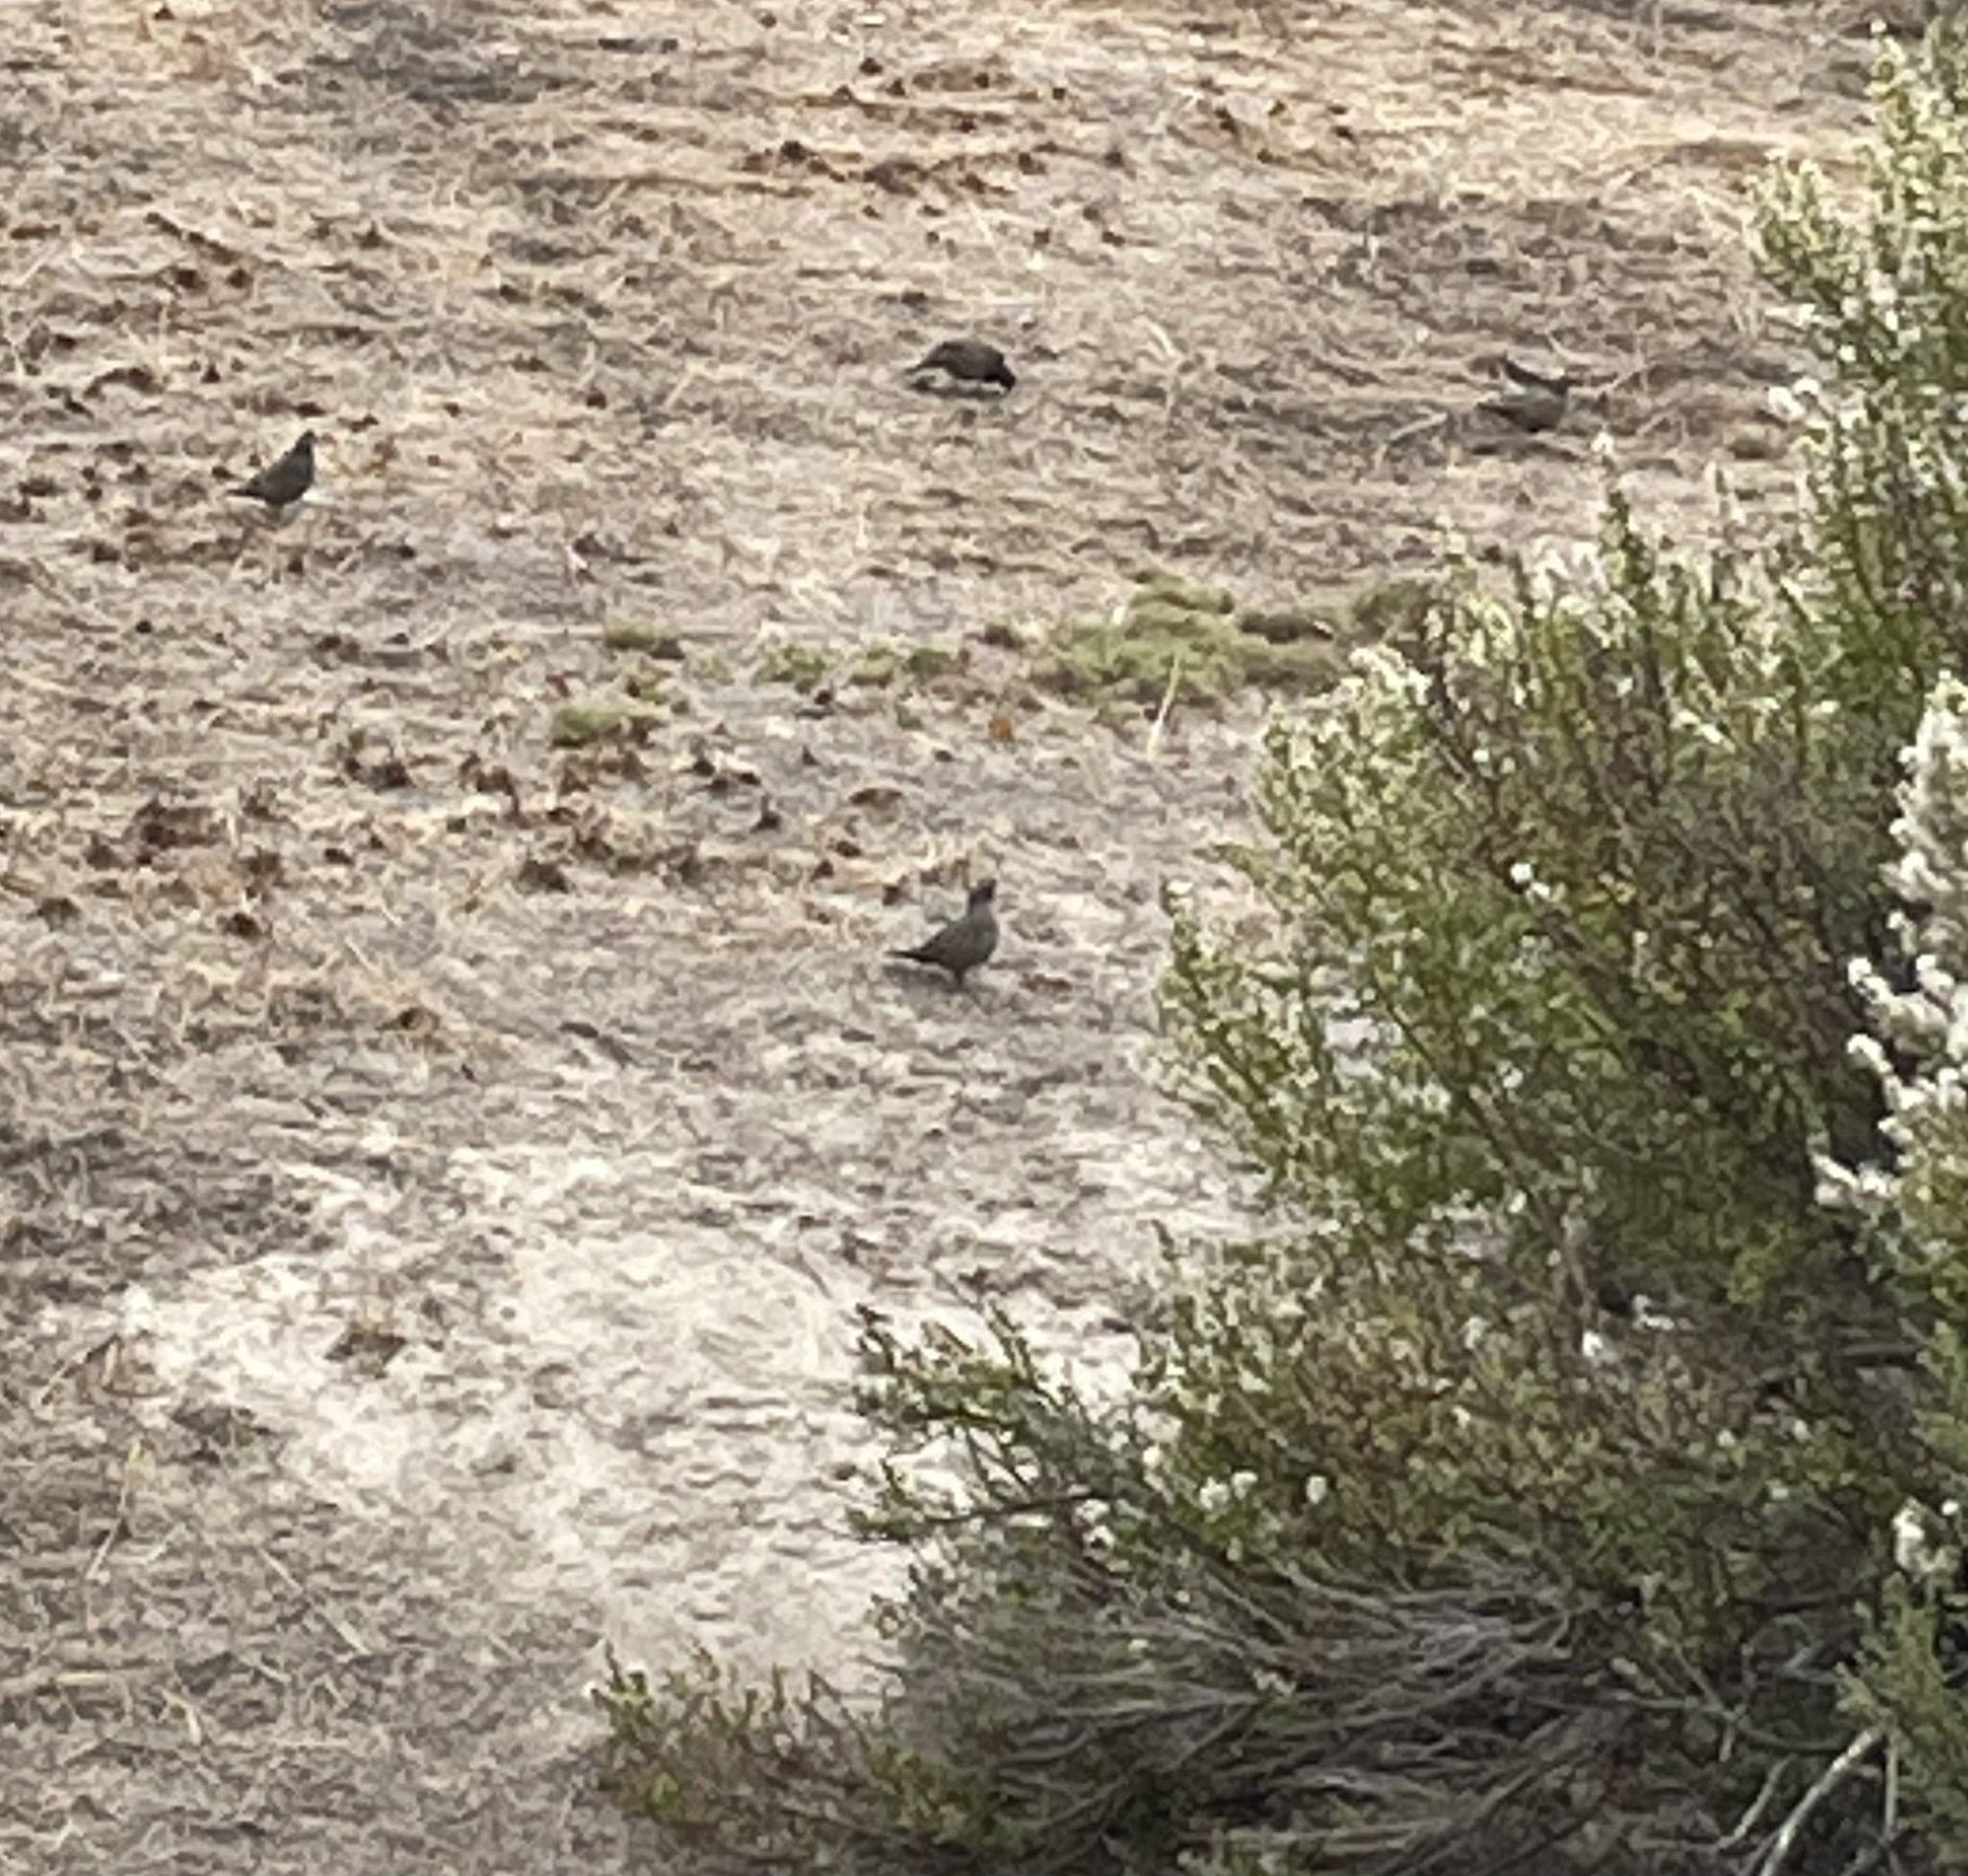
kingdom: Animalia
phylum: Chordata
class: Aves
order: Galliformes
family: Odontophoridae
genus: Callipepla
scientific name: Callipepla californica
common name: California quail
